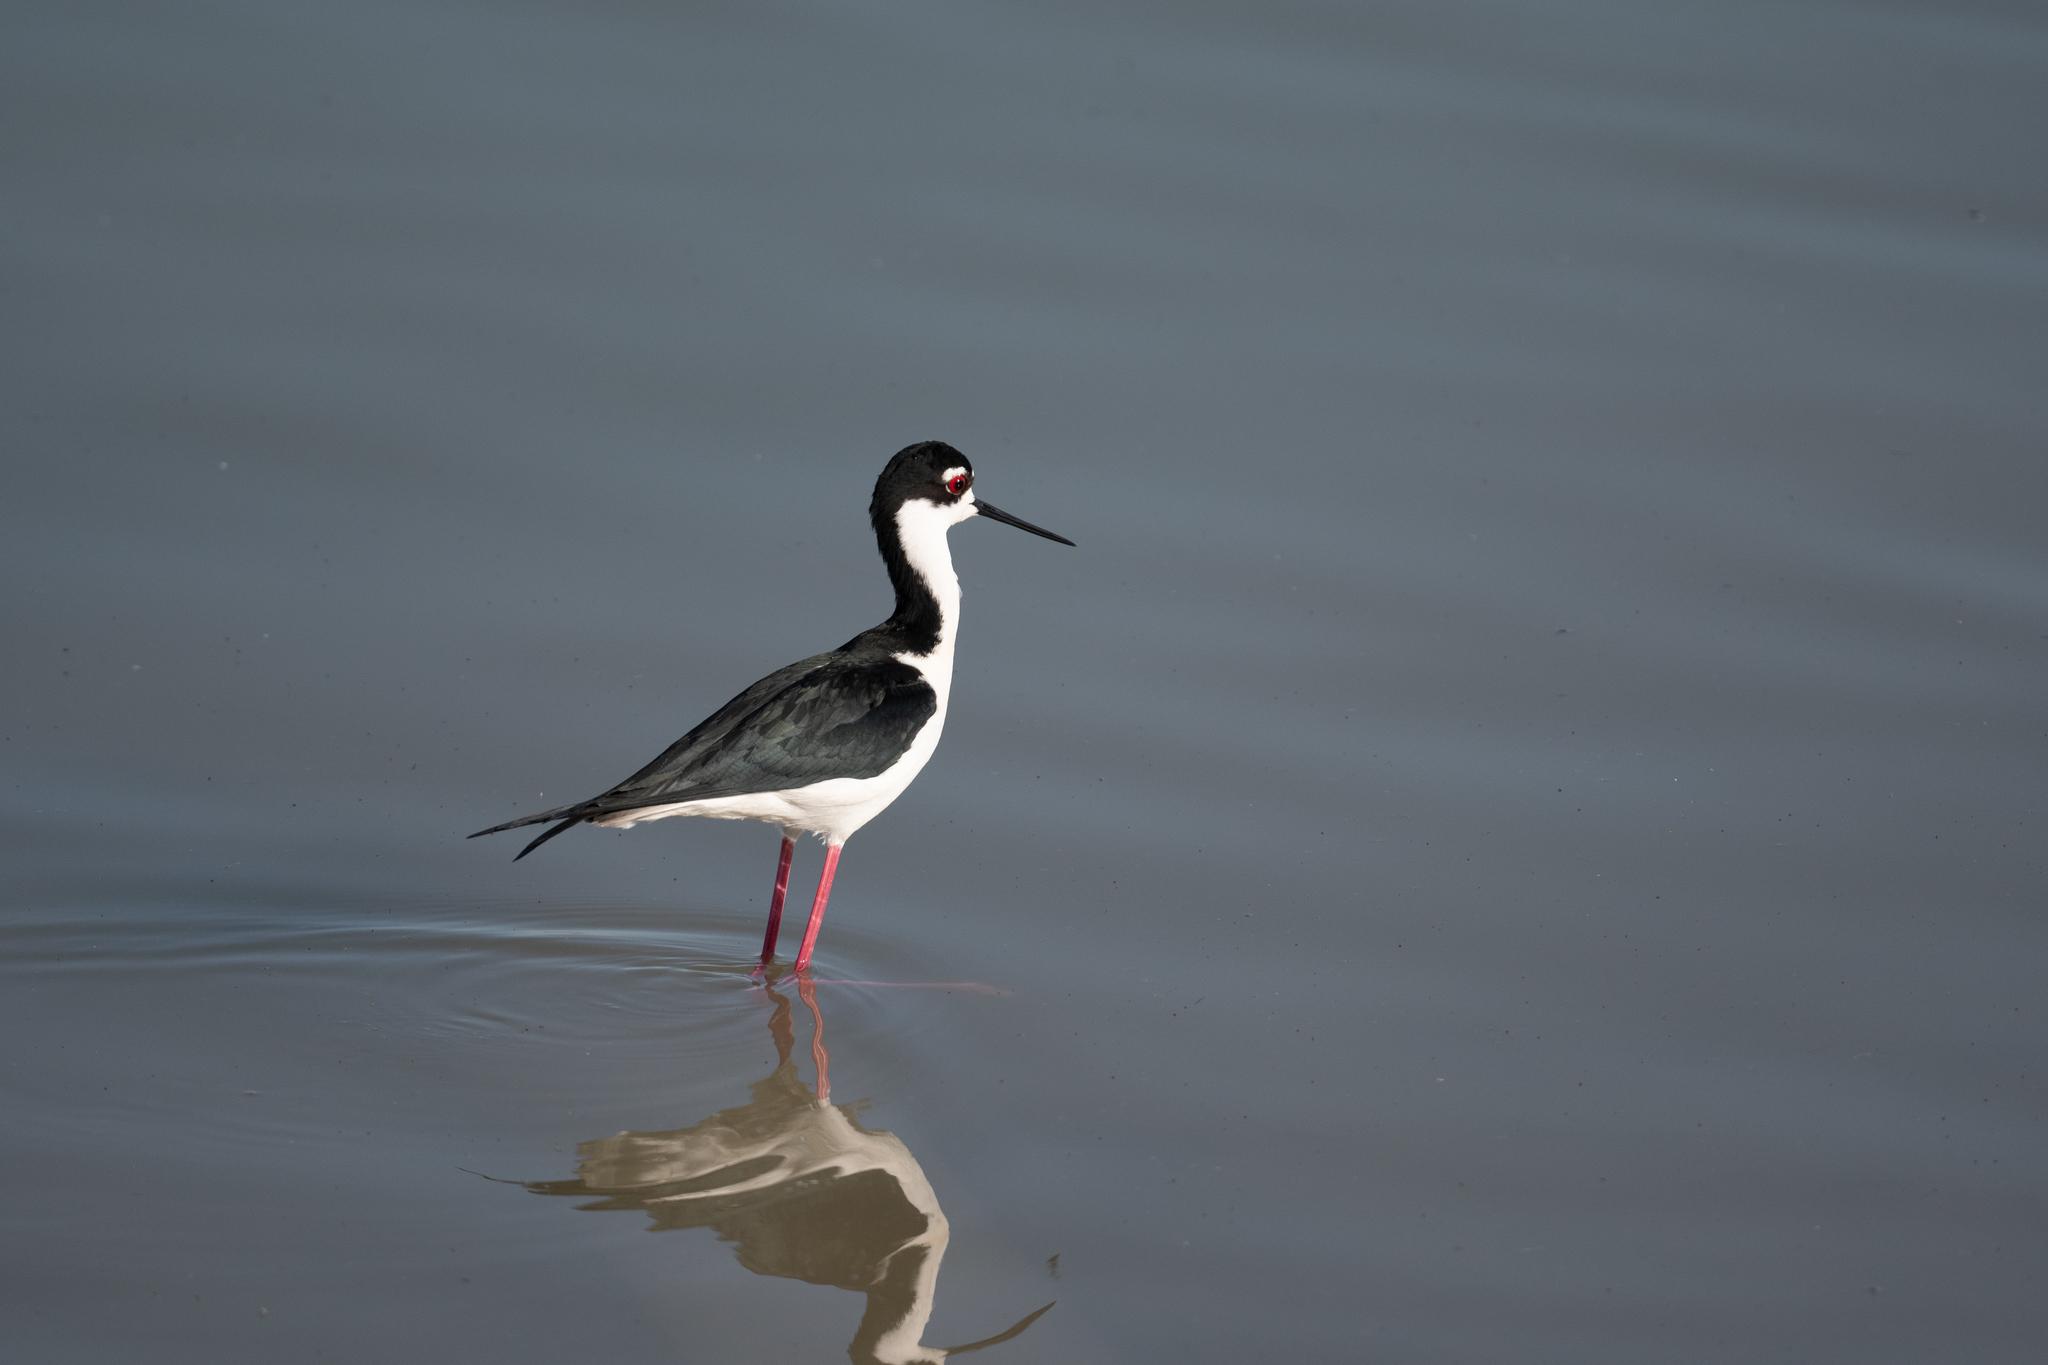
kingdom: Animalia
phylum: Chordata
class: Aves
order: Charadriiformes
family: Recurvirostridae
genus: Himantopus
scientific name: Himantopus mexicanus
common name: Black-necked stilt
